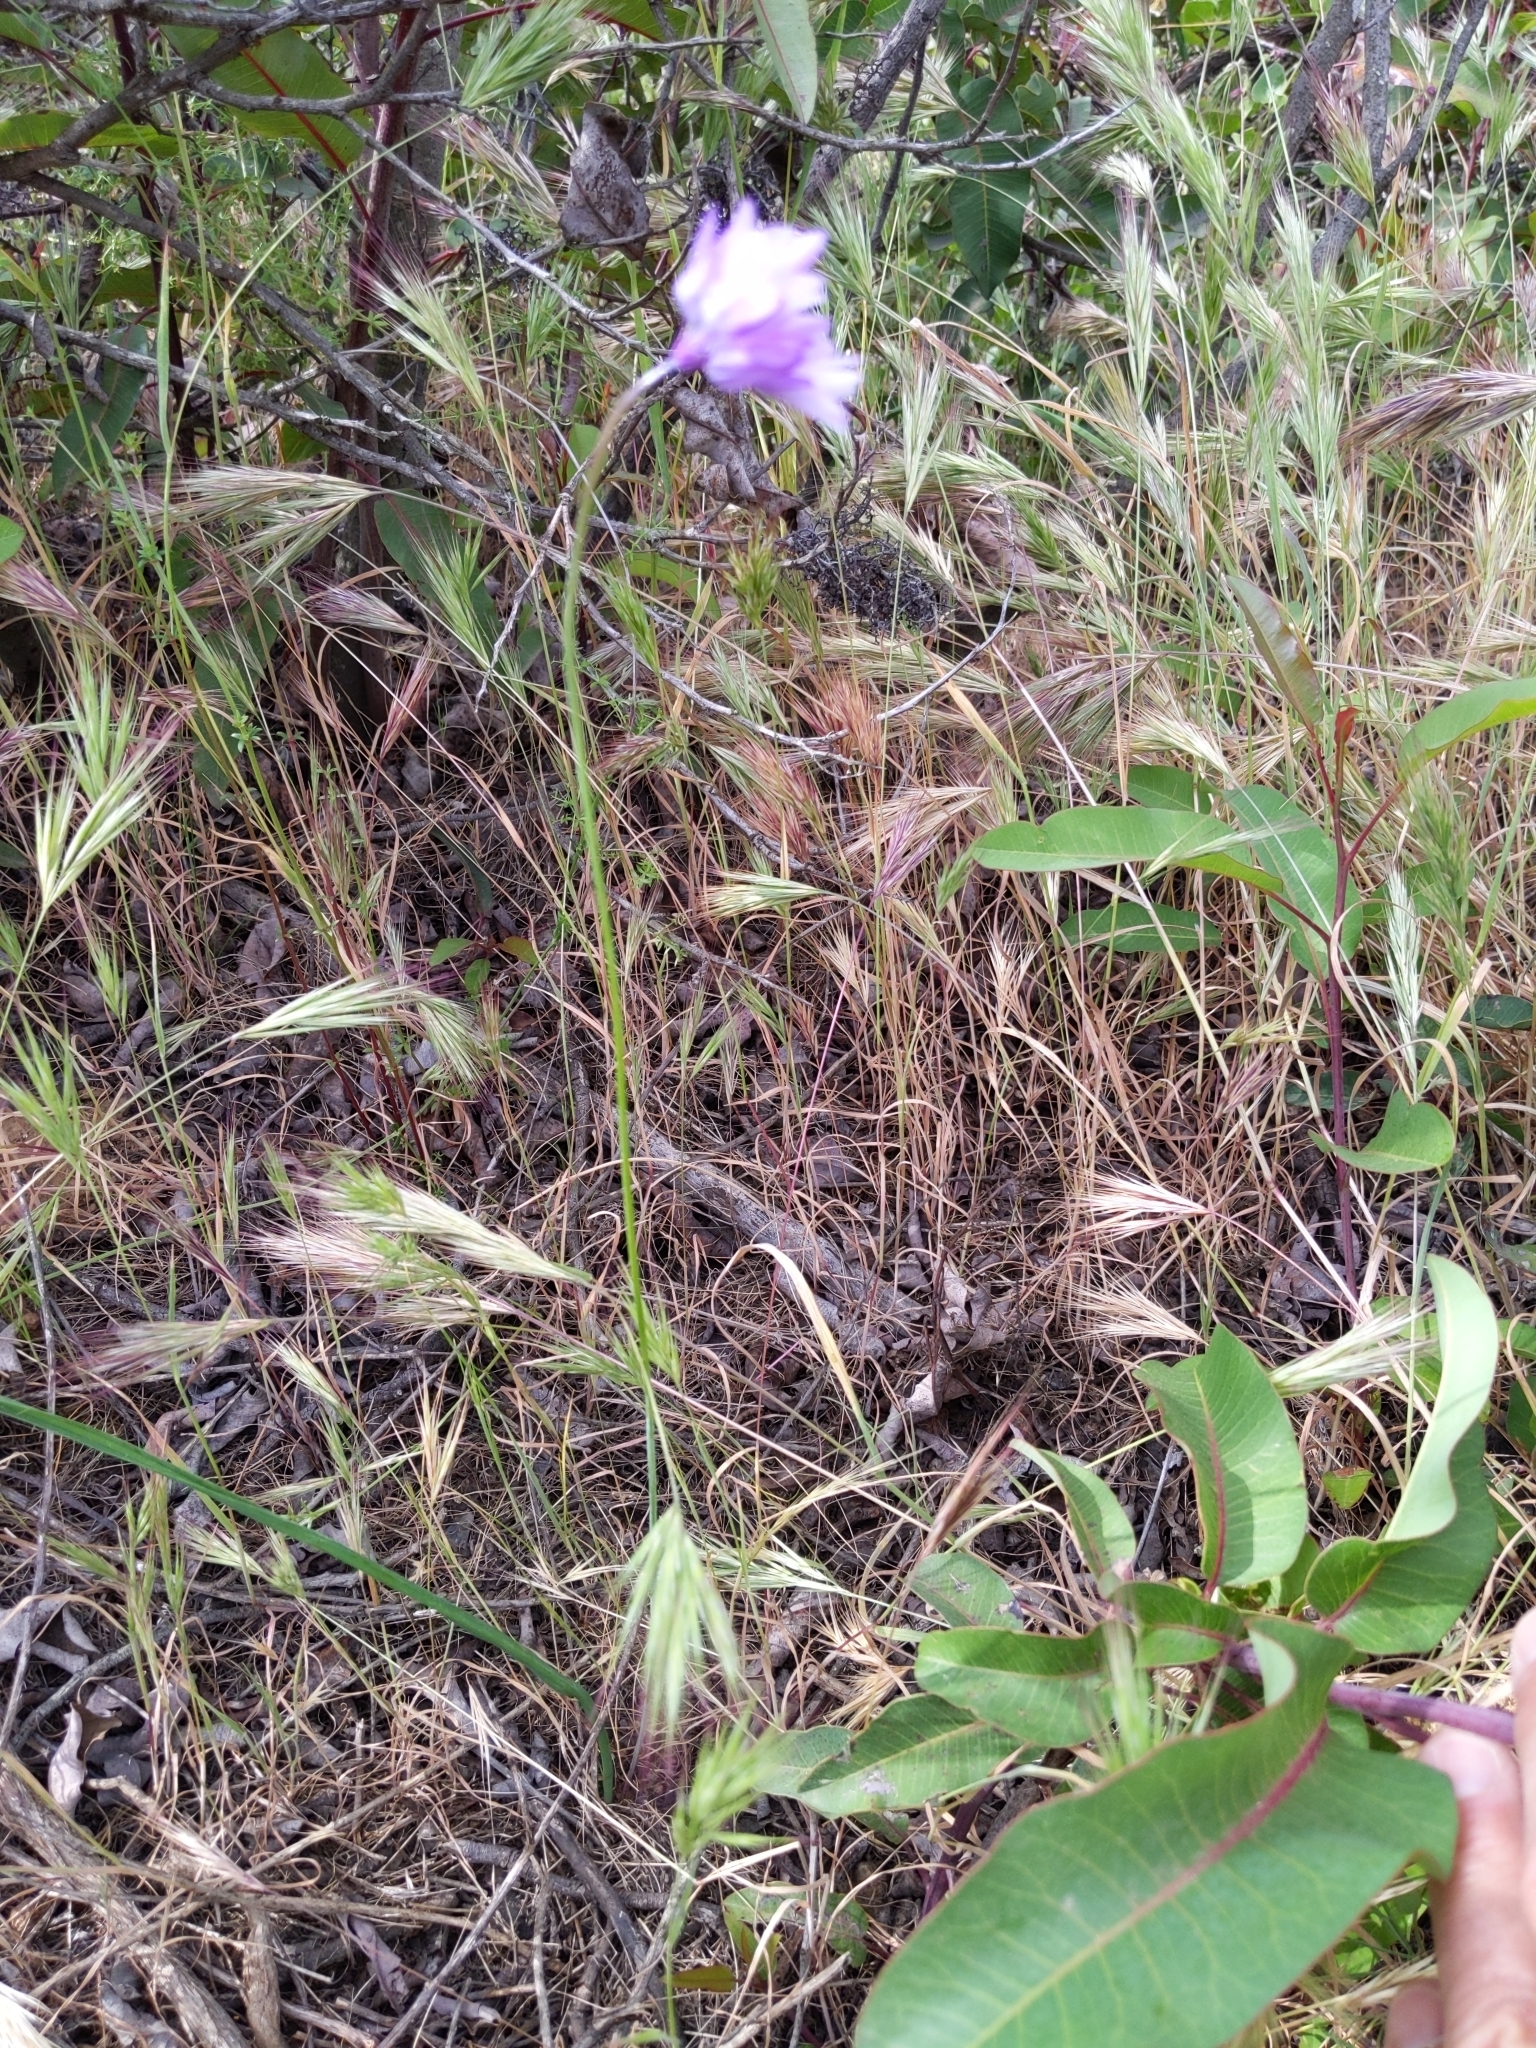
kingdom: Plantae
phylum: Tracheophyta
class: Liliopsida
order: Asparagales
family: Asparagaceae
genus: Dipterostemon
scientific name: Dipterostemon capitatus
